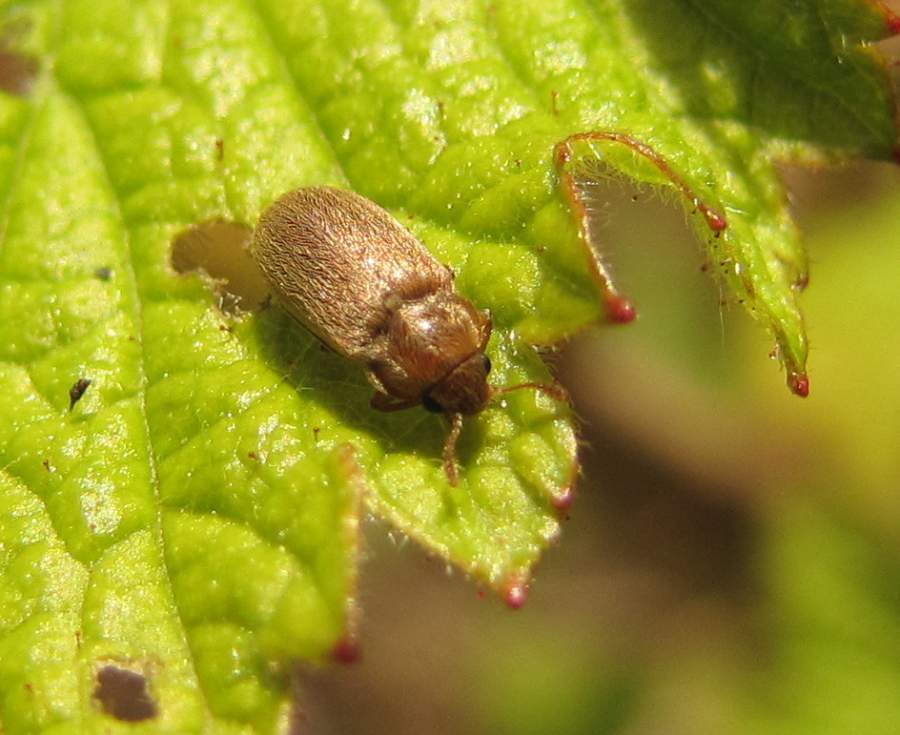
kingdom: Animalia
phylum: Arthropoda
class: Insecta
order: Coleoptera
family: Byturidae
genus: Byturus
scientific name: Byturus unicolor
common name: Raspberry fruitworm beetle
